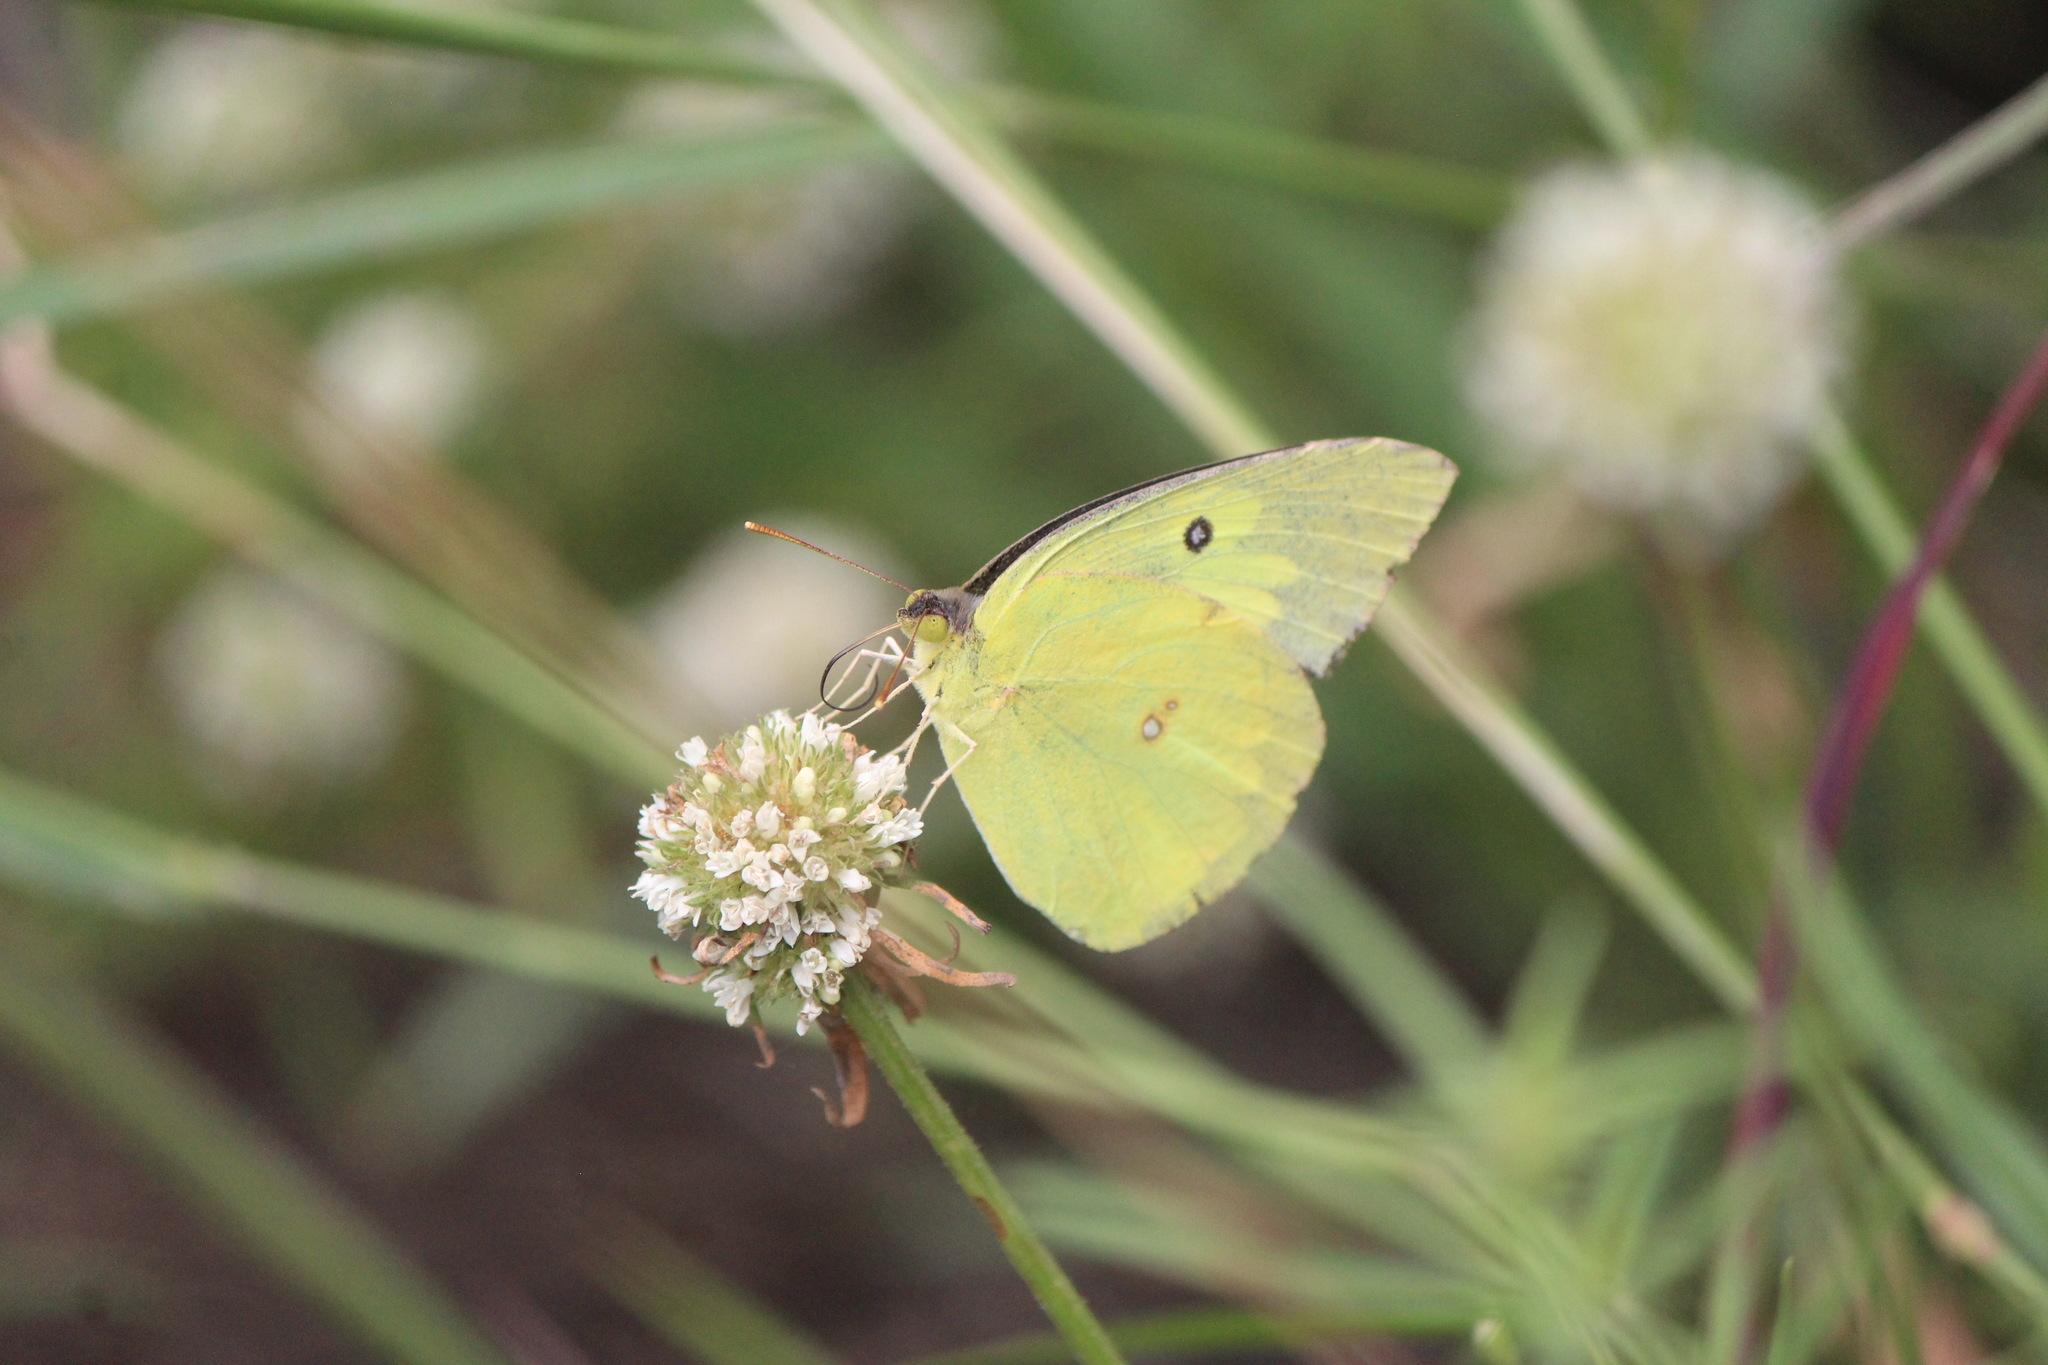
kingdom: Animalia
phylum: Arthropoda
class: Insecta
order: Lepidoptera
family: Pieridae
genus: Zerene
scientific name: Zerene cesonia
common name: Southern dogface
